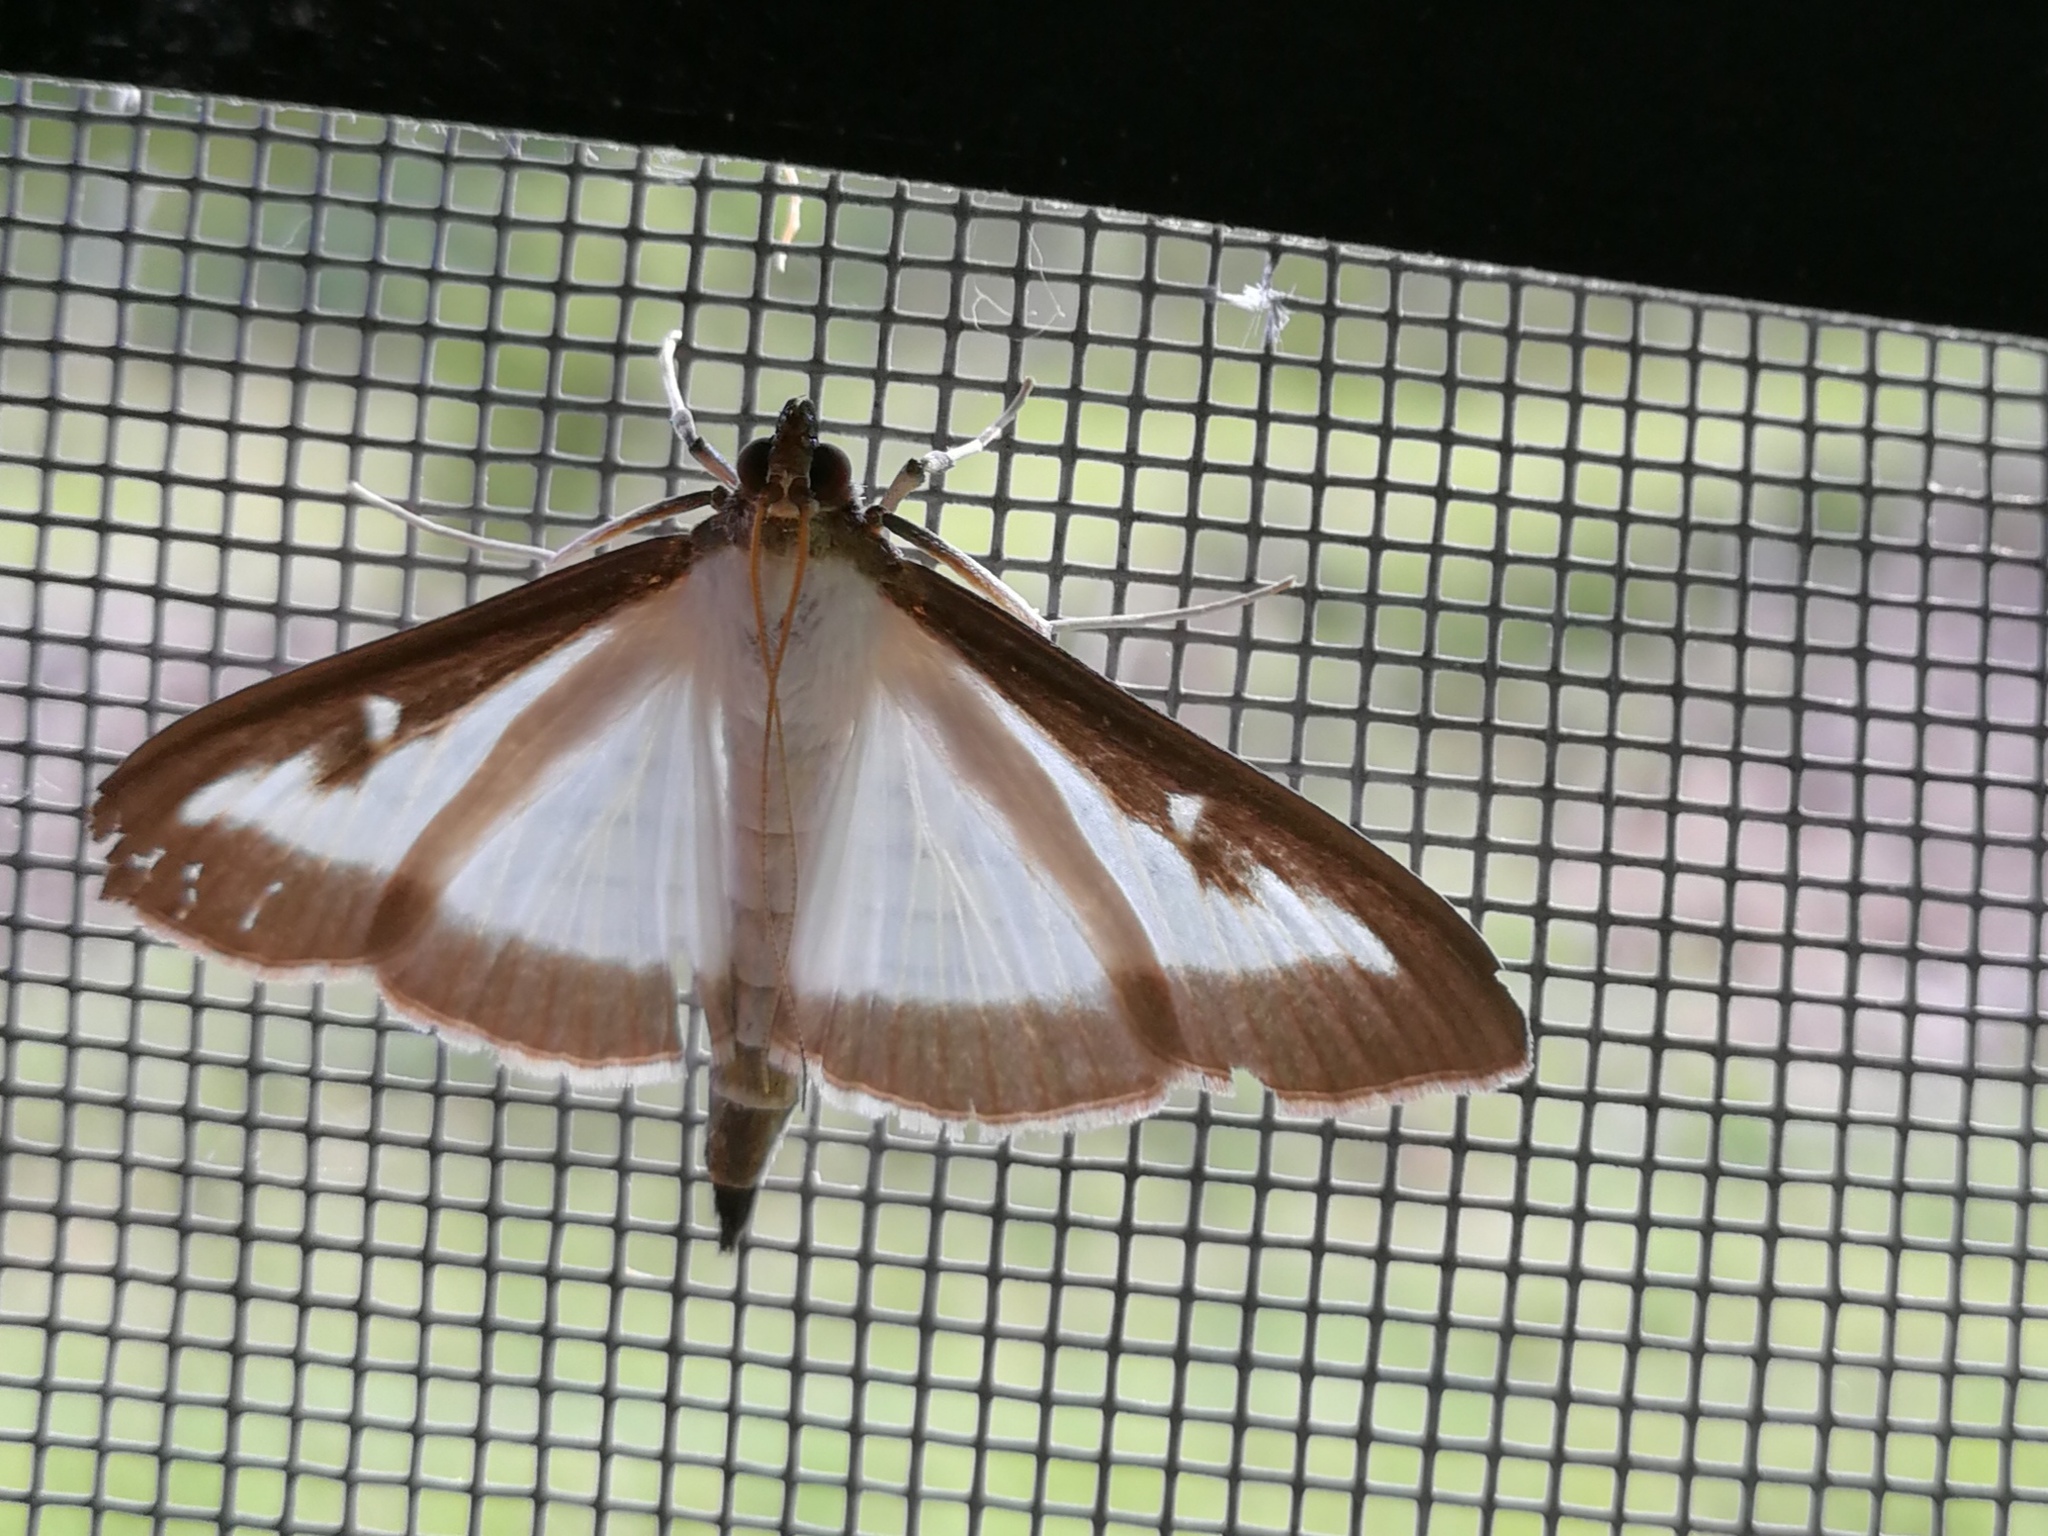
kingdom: Animalia
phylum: Arthropoda
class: Insecta
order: Lepidoptera
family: Crambidae
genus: Cydalima
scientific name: Cydalima perspectalis
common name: Box tree moth
